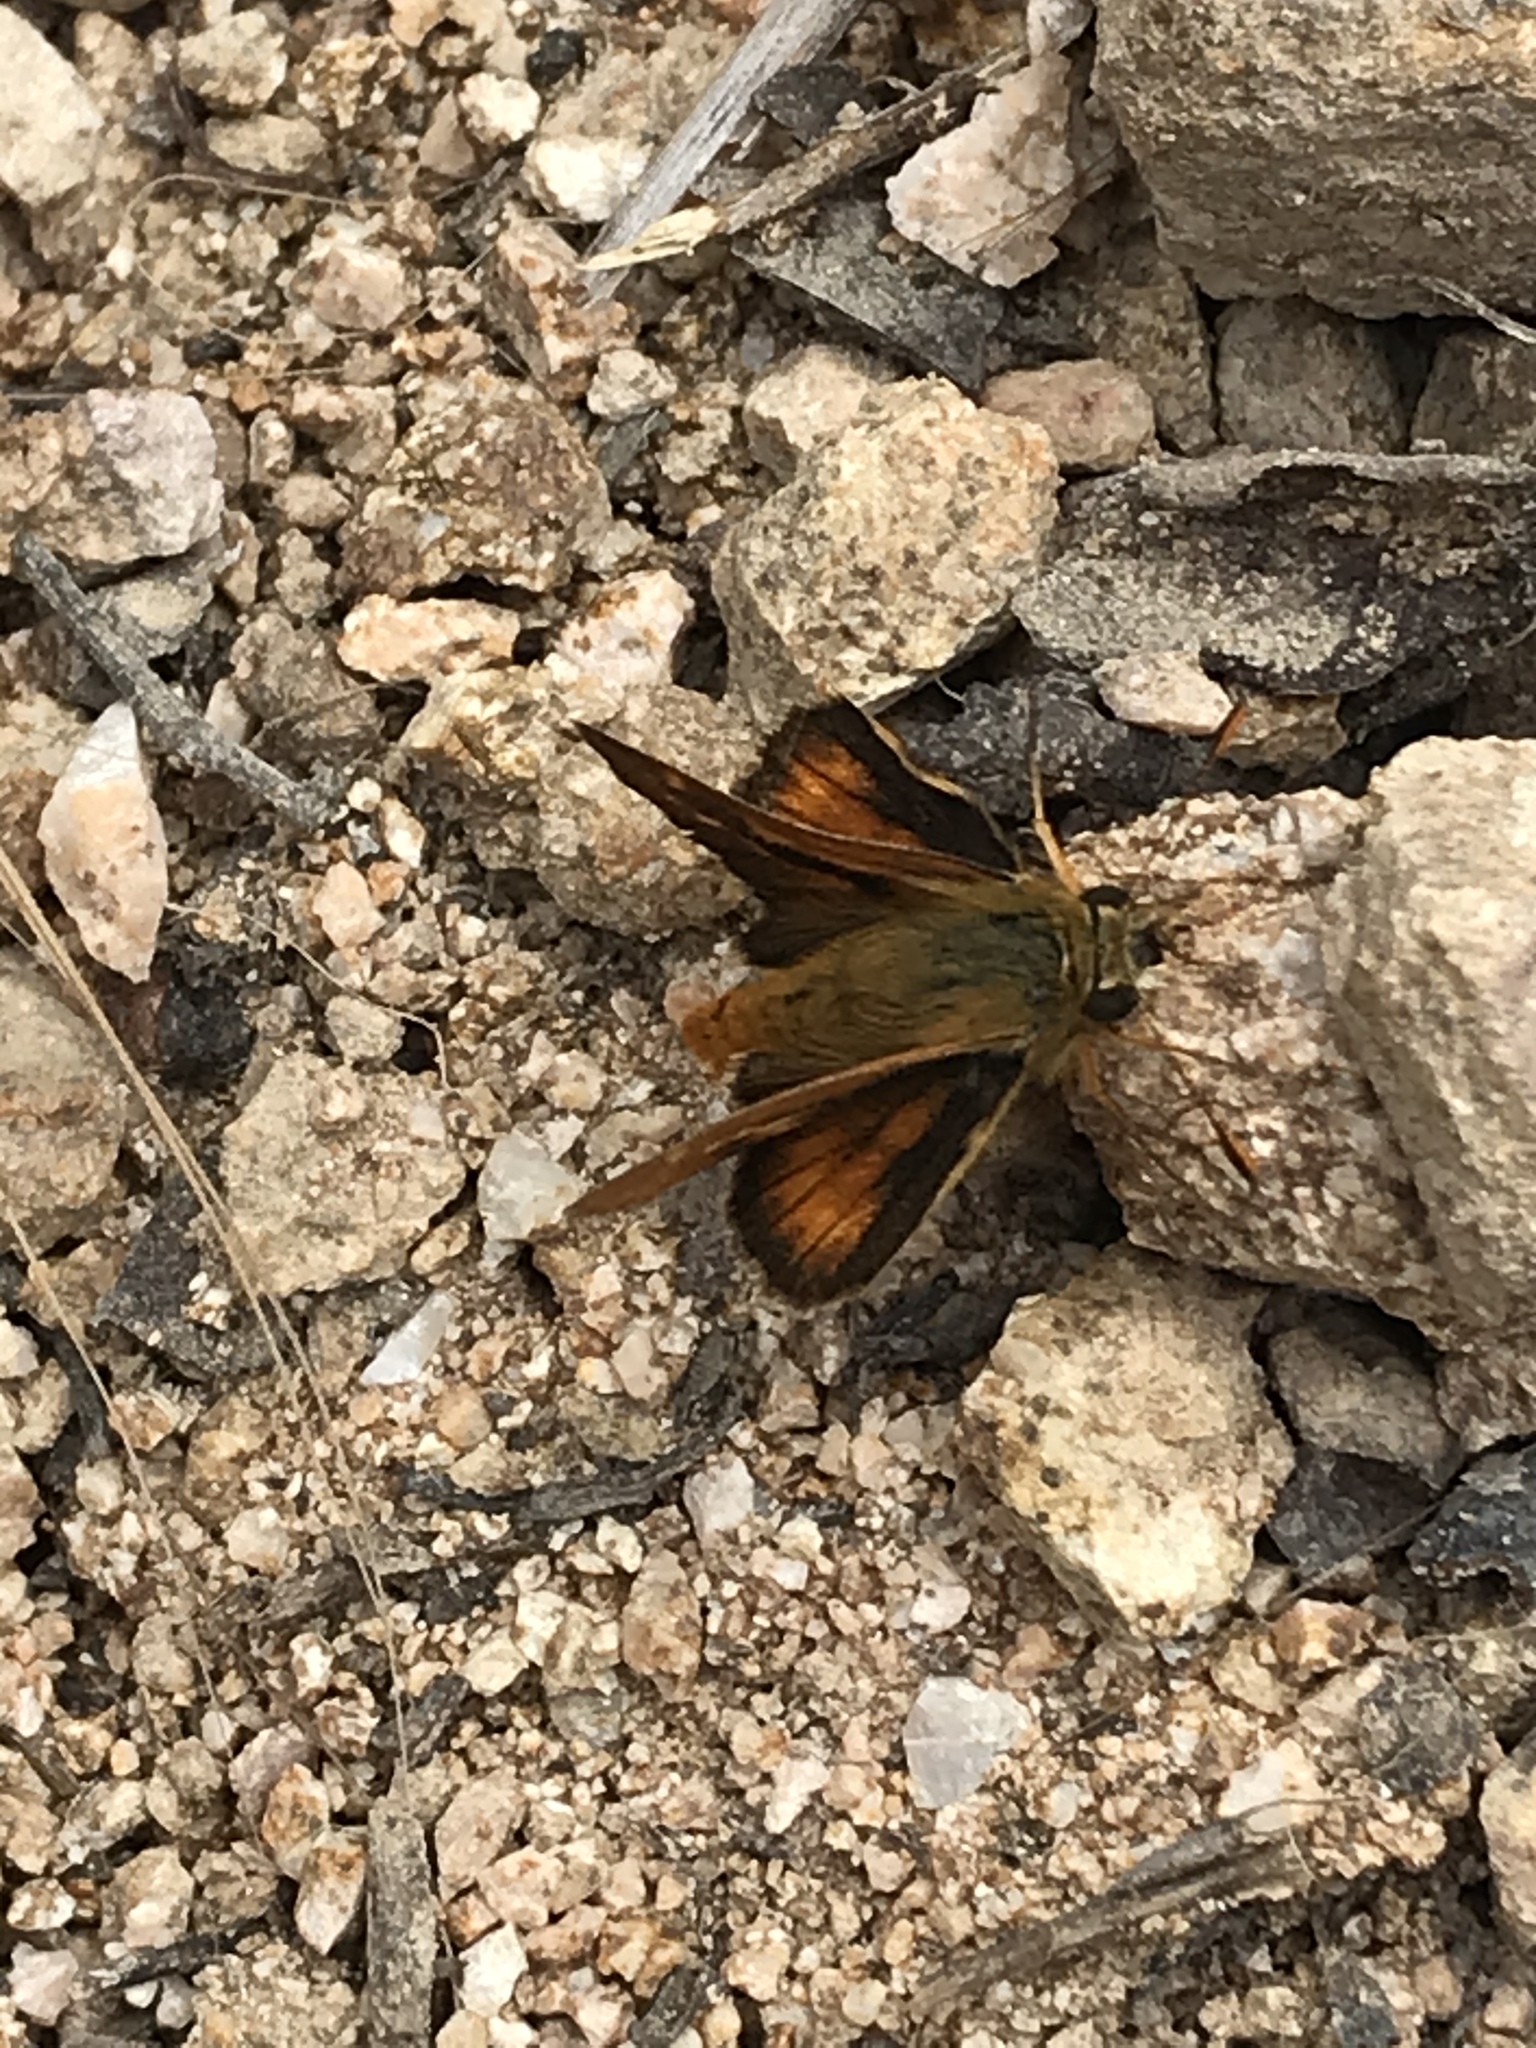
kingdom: Animalia
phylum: Arthropoda
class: Insecta
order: Lepidoptera
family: Hesperiidae
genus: Ochlodes
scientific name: Ochlodes agricola
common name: Rural skipper
